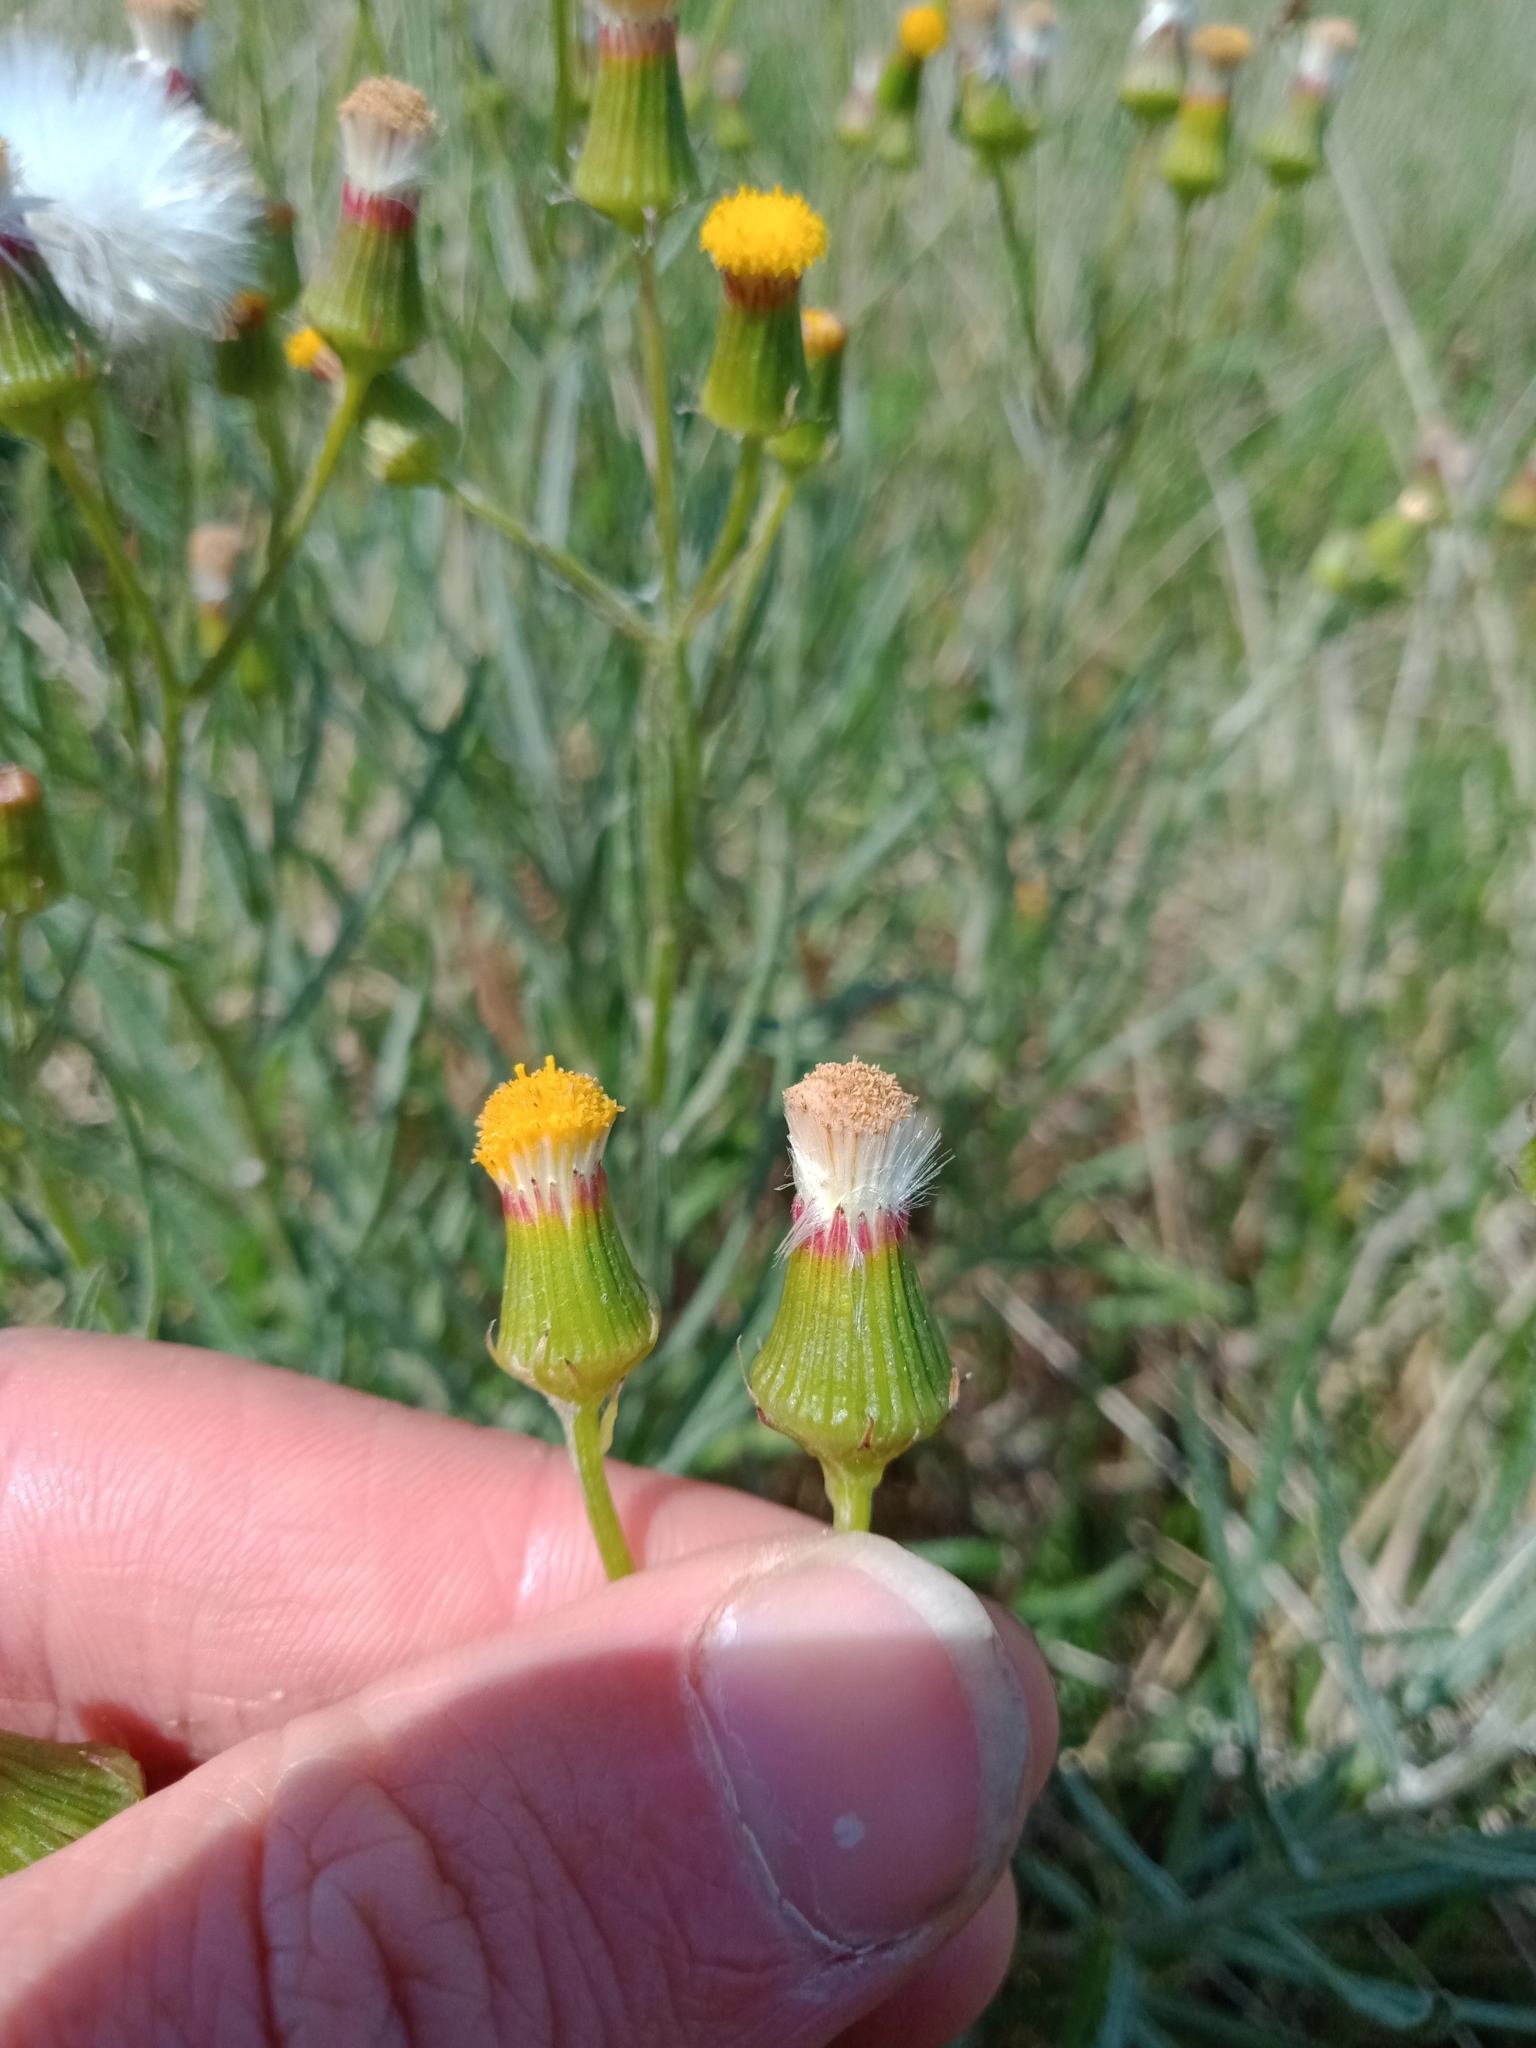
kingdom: Plantae
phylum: Tracheophyta
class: Magnoliopsida
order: Asterales
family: Asteraceae
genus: Senecio
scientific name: Senecio macrocarpus
